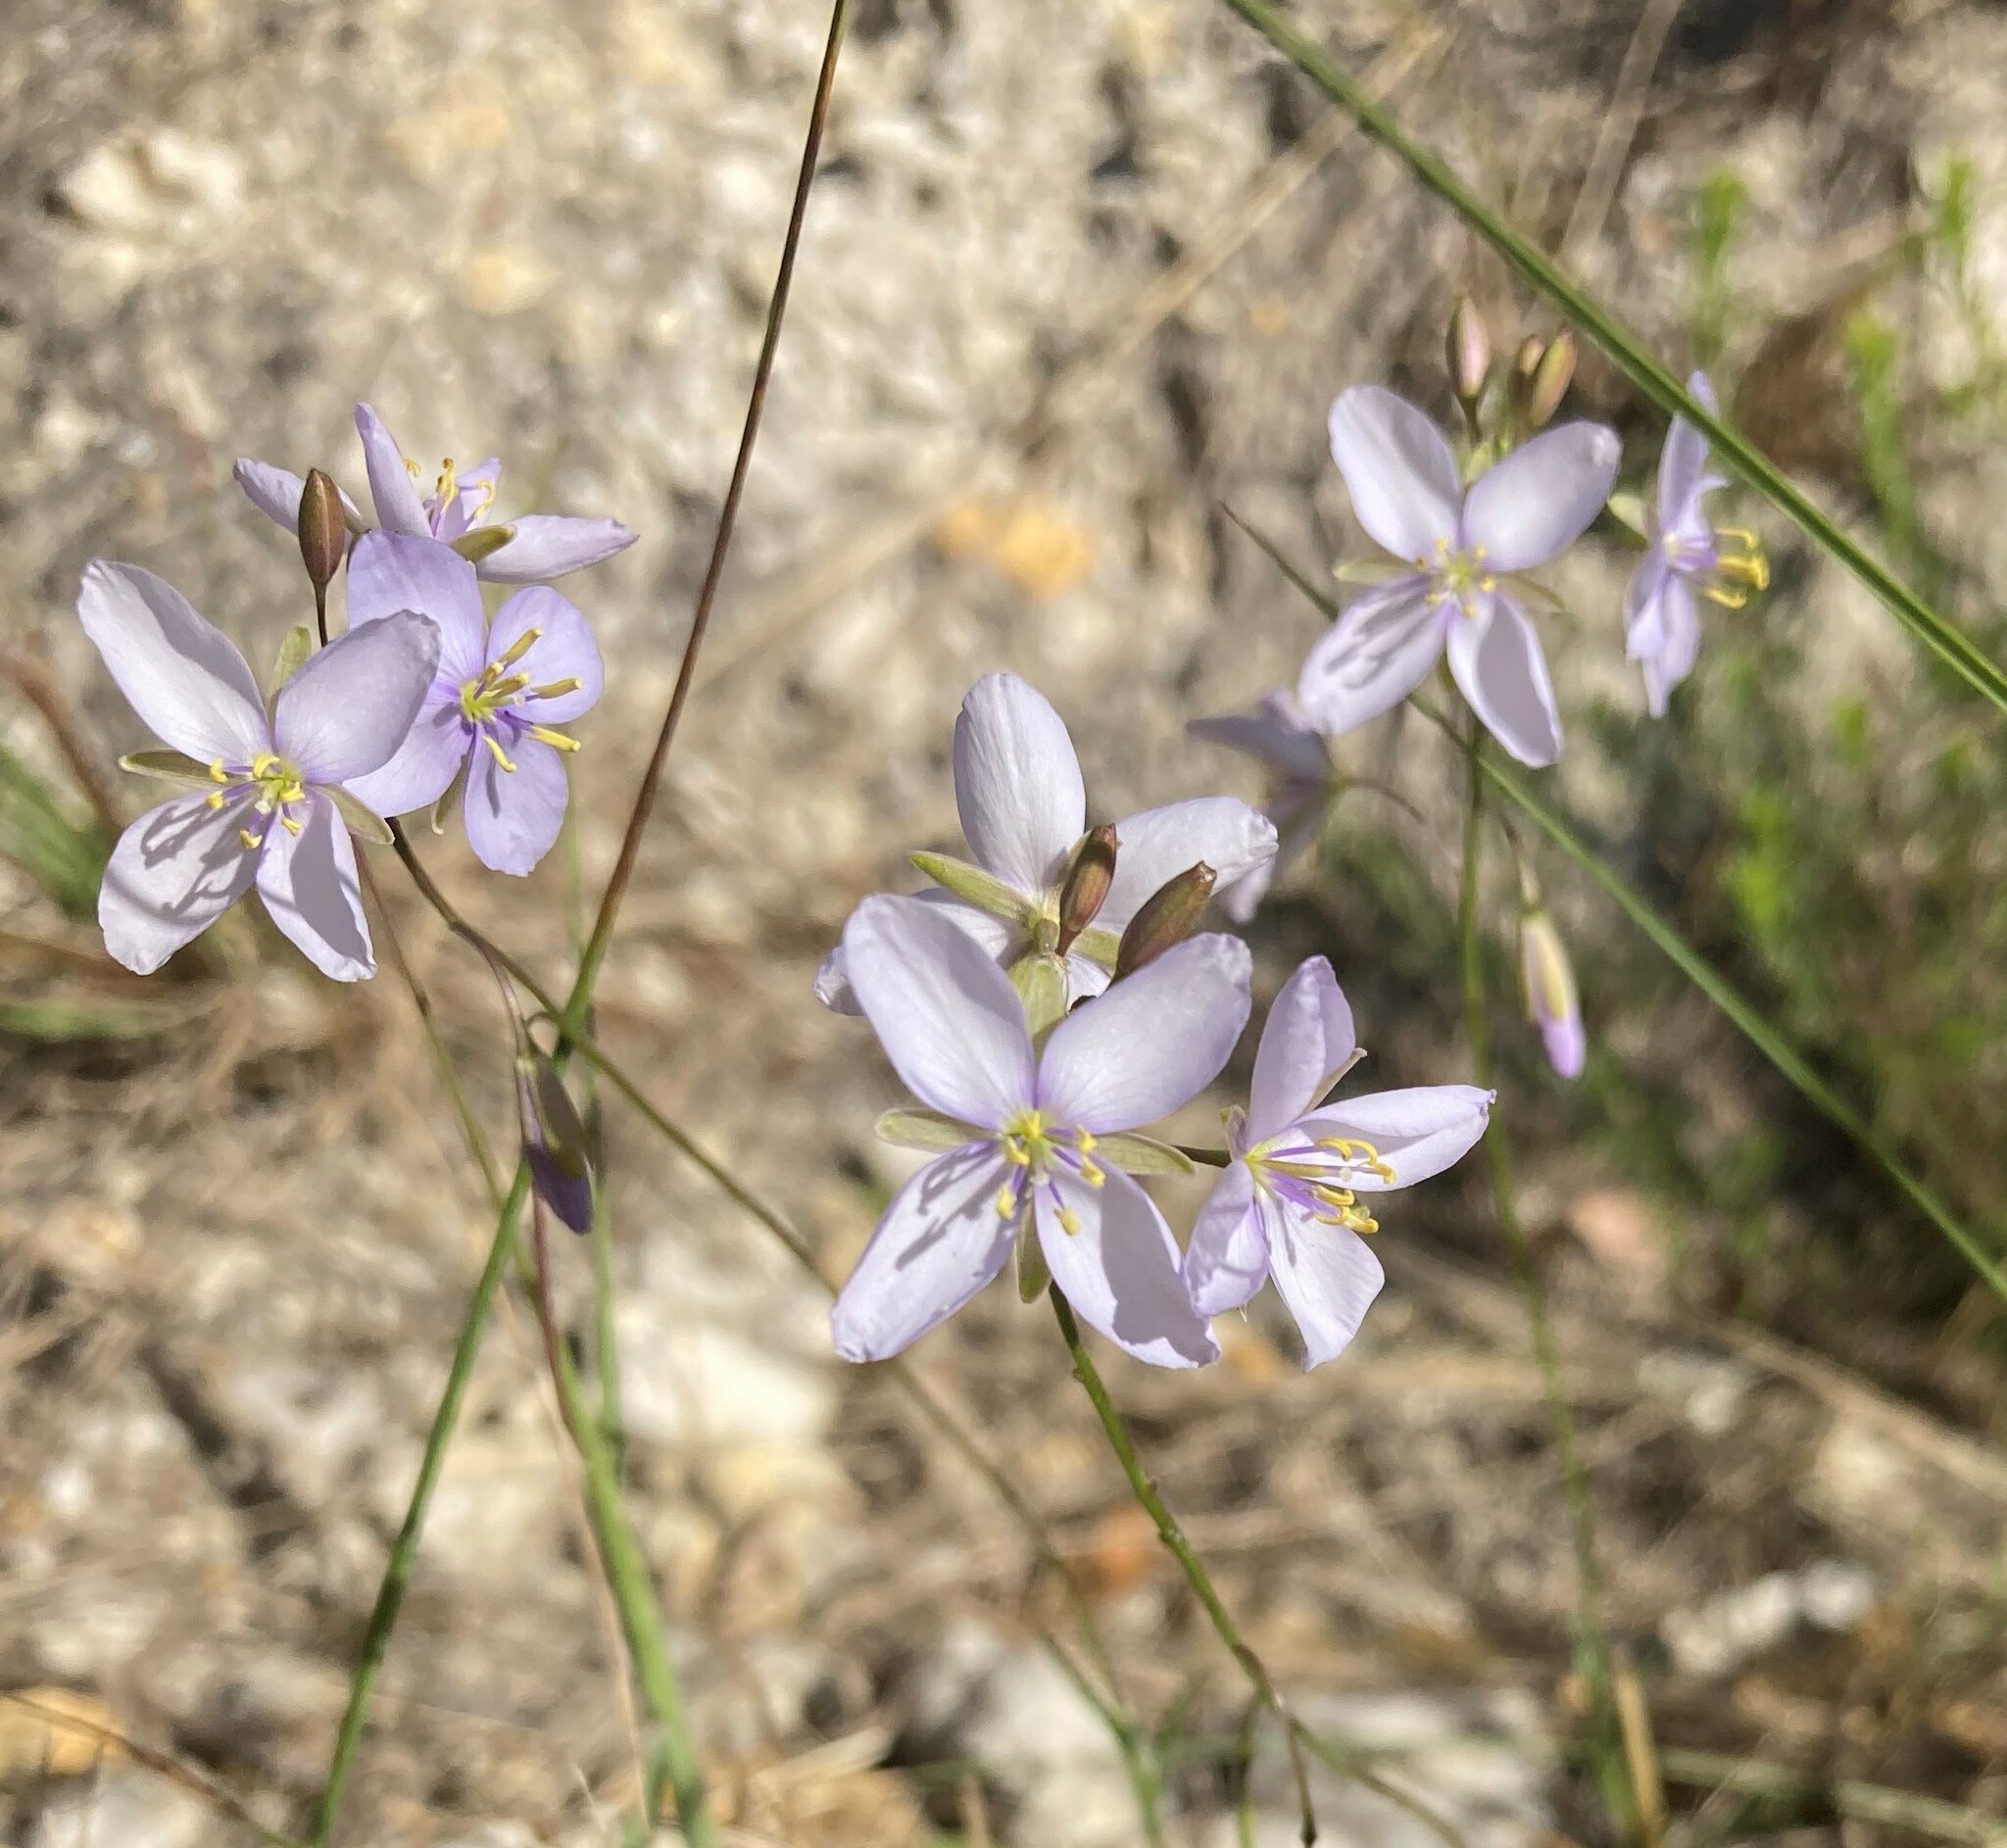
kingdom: Plantae
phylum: Tracheophyta
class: Magnoliopsida
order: Brassicales
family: Brassicaceae
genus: Heliophila
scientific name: Heliophila subulata
